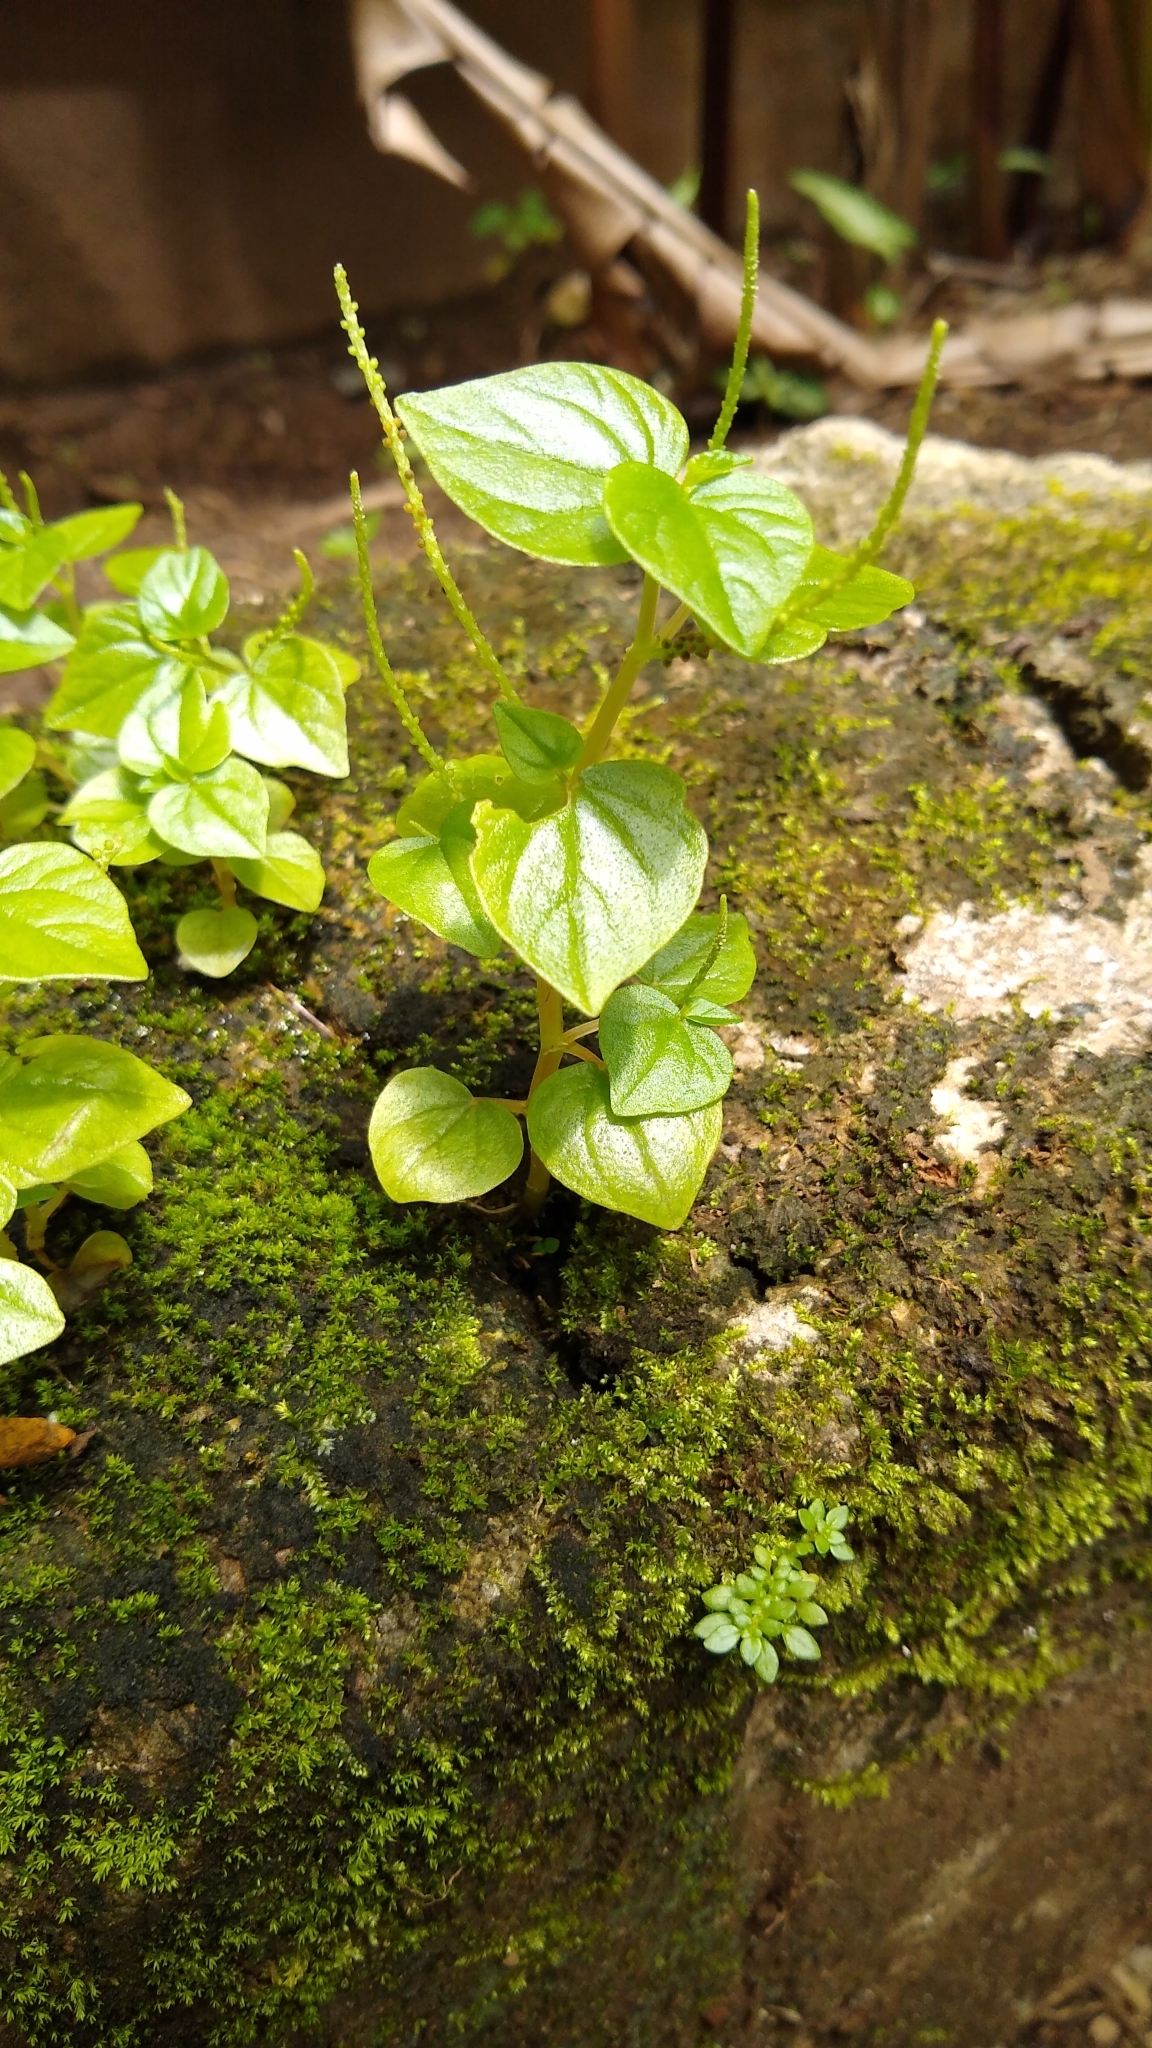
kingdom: Plantae
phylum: Tracheophyta
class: Magnoliopsida
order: Piperales
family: Piperaceae
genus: Peperomia
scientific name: Peperomia pellucida
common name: Man to man
